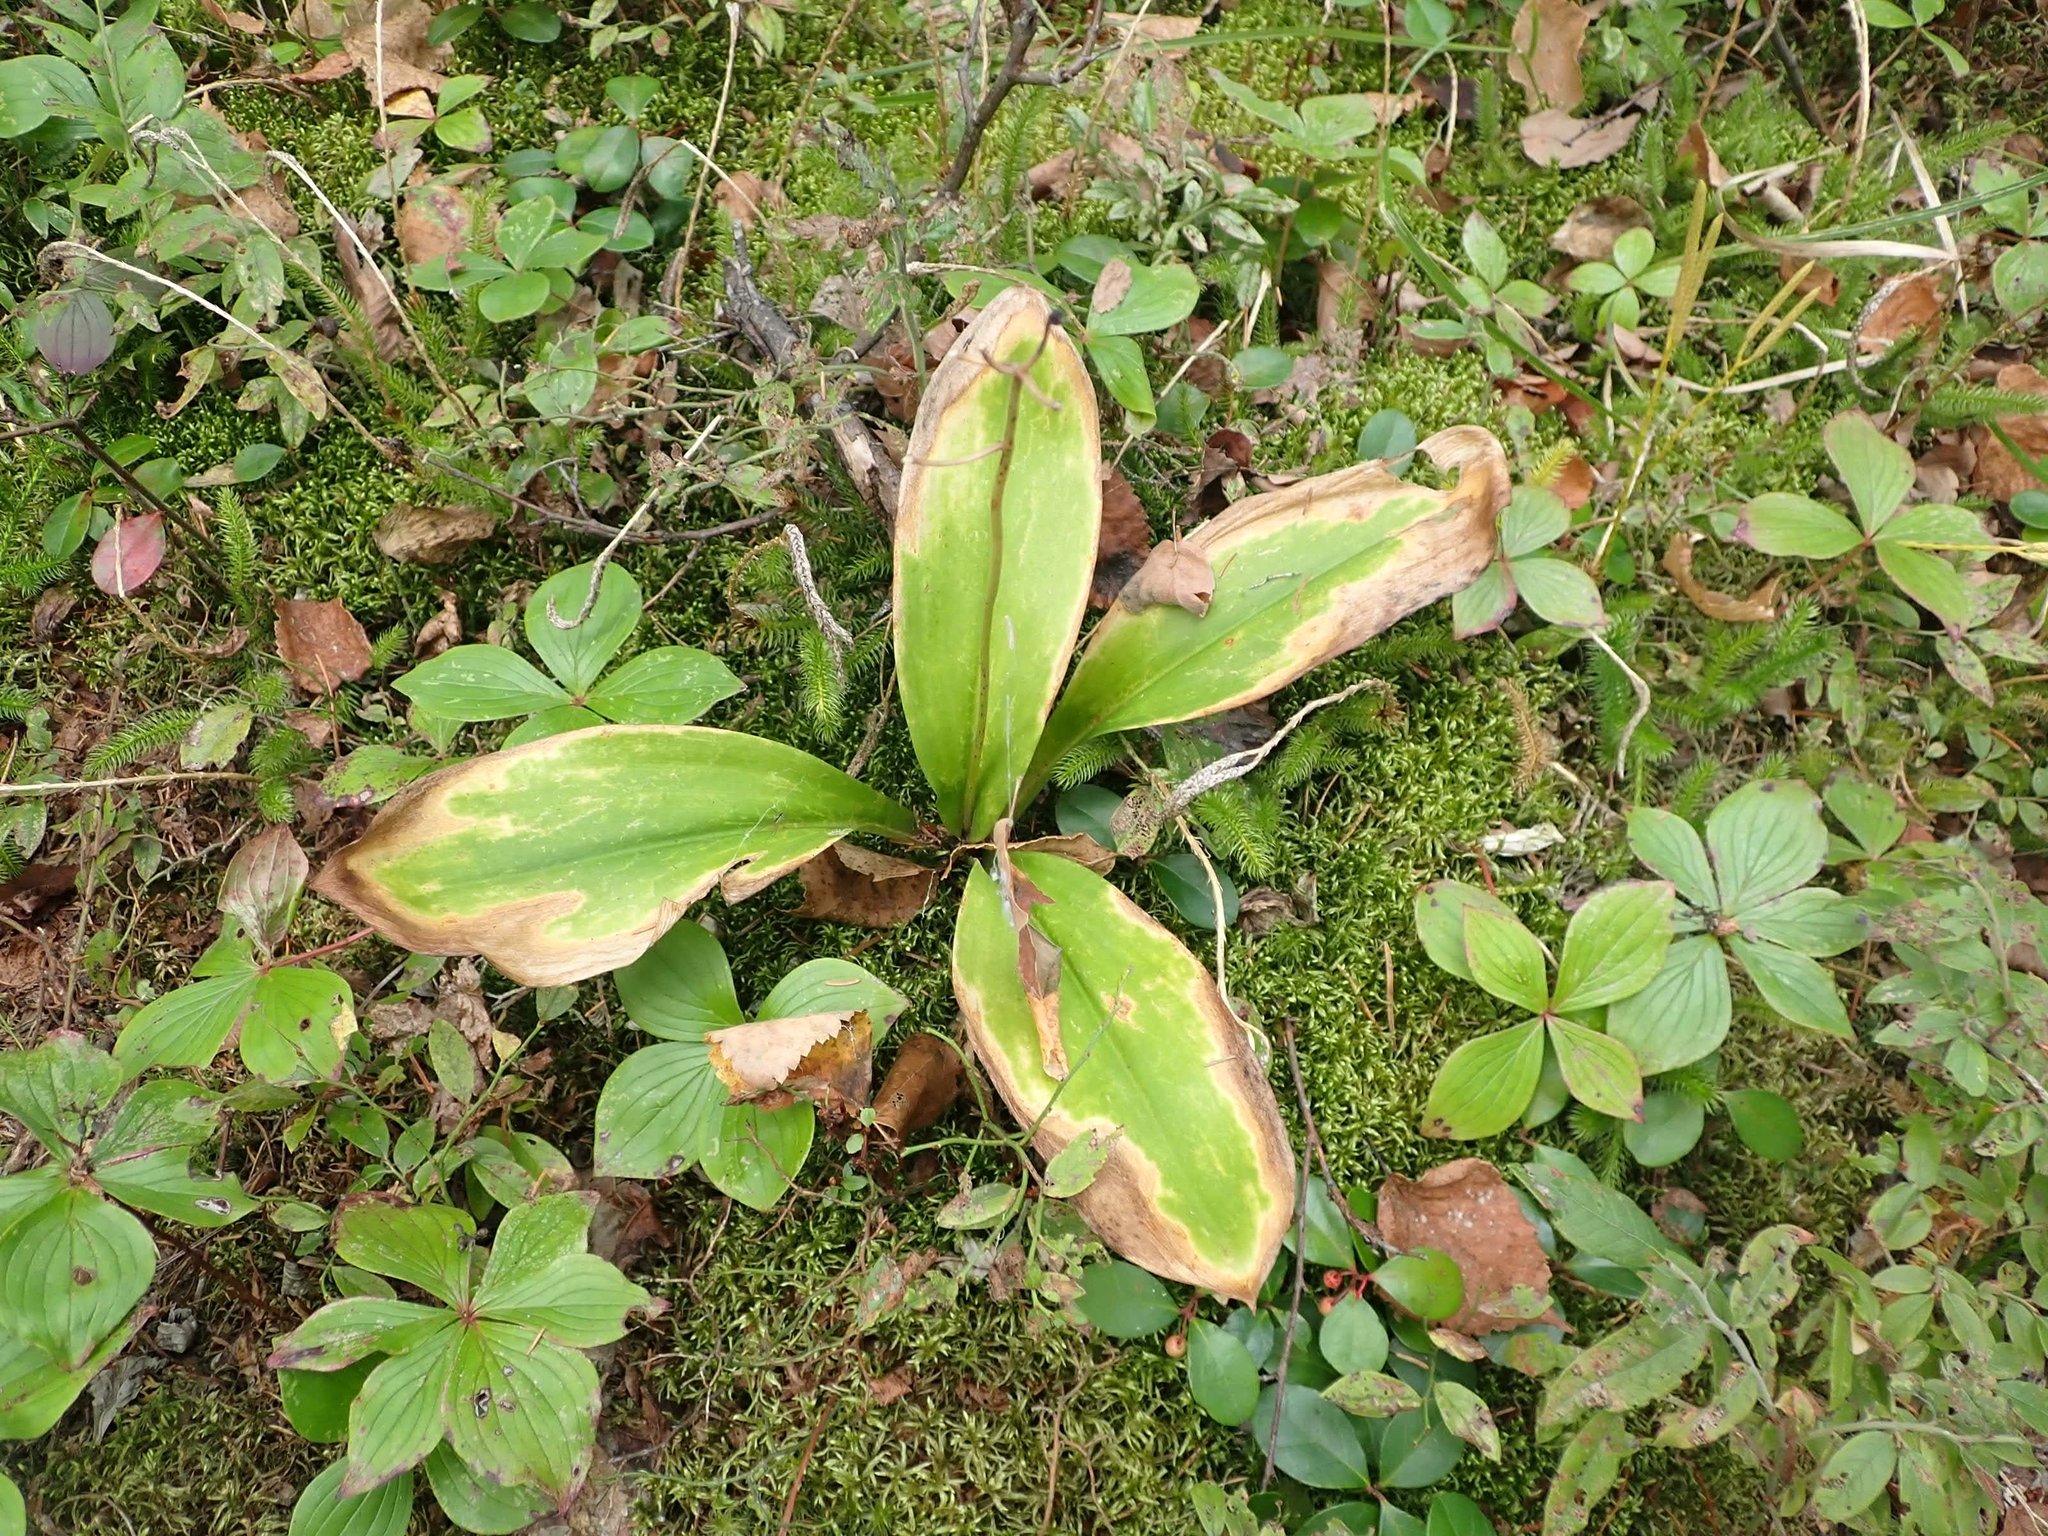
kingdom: Plantae
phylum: Tracheophyta
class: Liliopsida
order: Liliales
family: Liliaceae
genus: Clintonia
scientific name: Clintonia borealis
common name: Yellow clintonia
